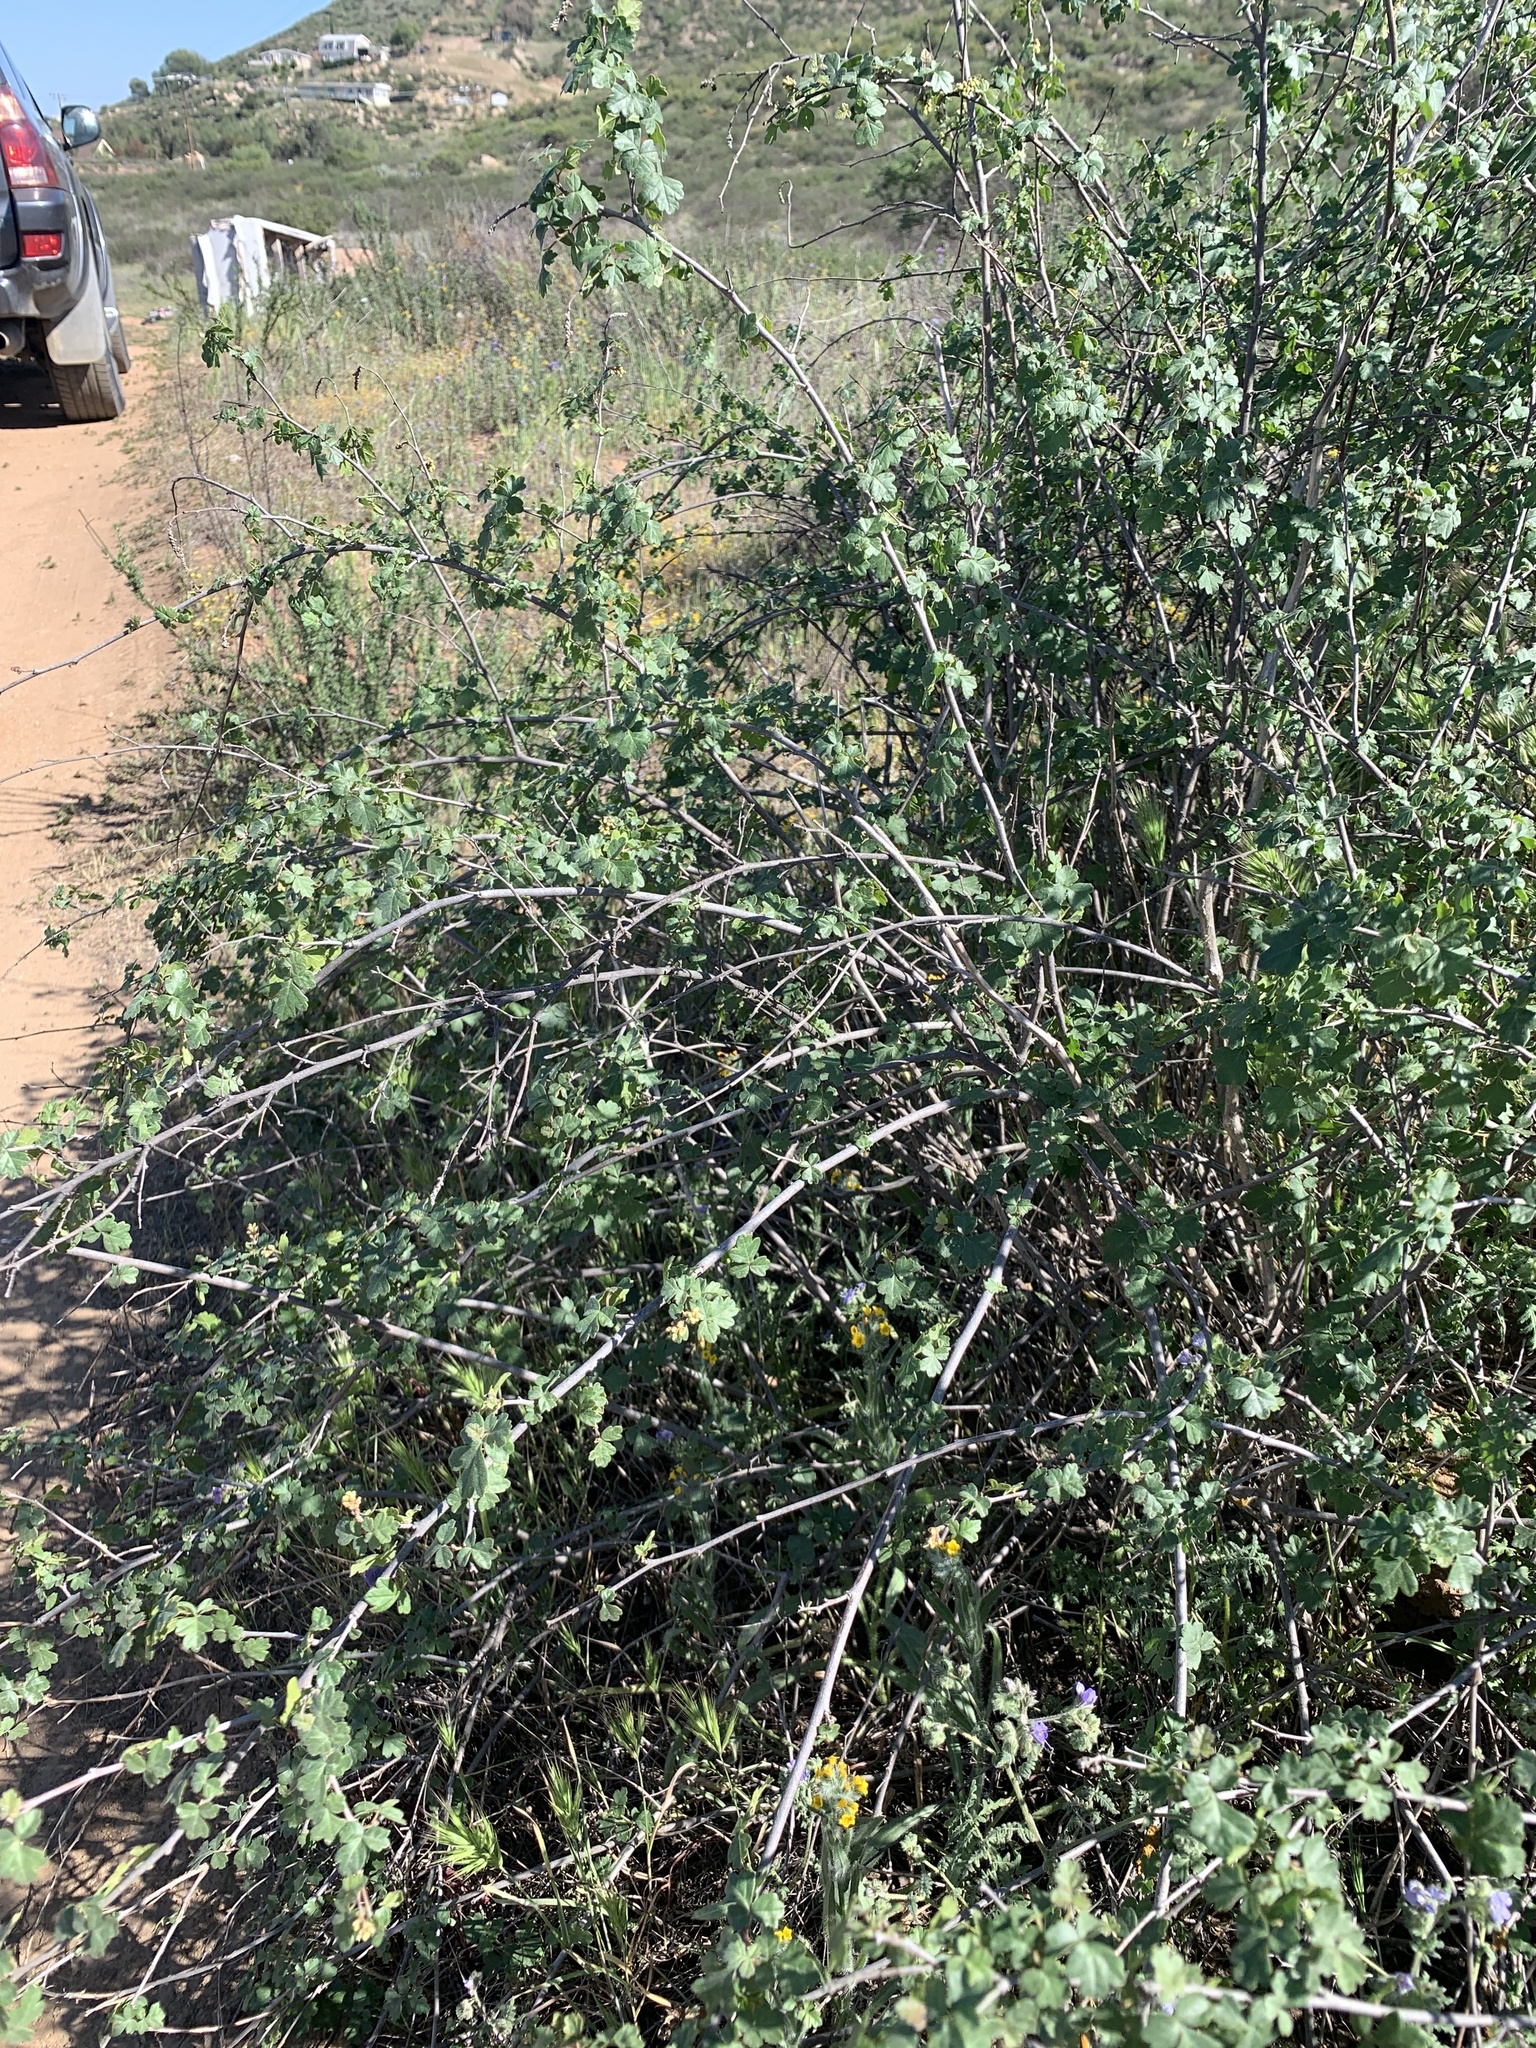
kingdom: Plantae
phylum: Tracheophyta
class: Magnoliopsida
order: Sapindales
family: Anacardiaceae
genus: Rhus
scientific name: Rhus aromatica
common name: Aromatic sumac
